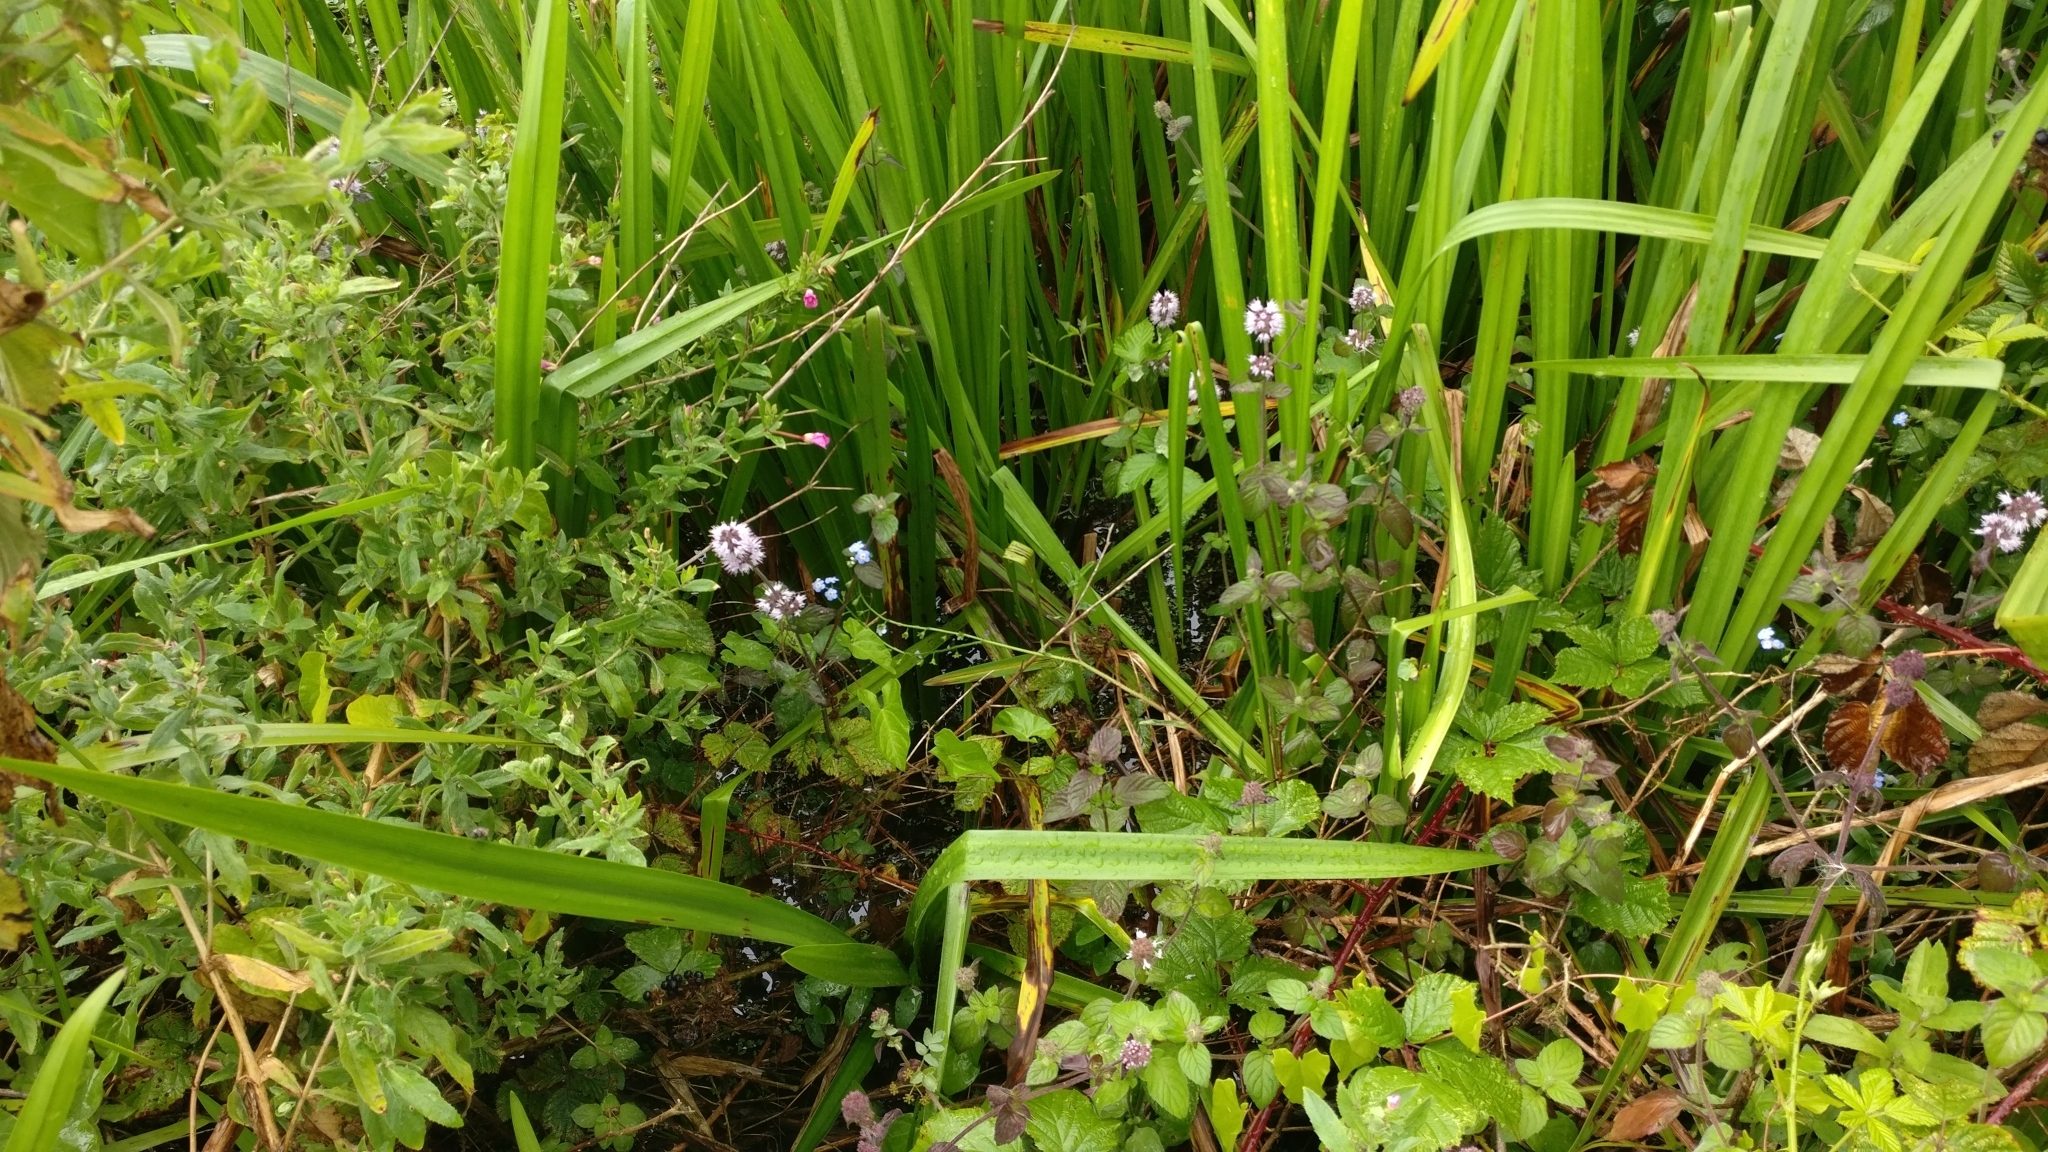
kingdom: Plantae
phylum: Tracheophyta
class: Magnoliopsida
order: Lamiales
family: Lamiaceae
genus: Mentha
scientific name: Mentha aquatica
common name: Water mint
